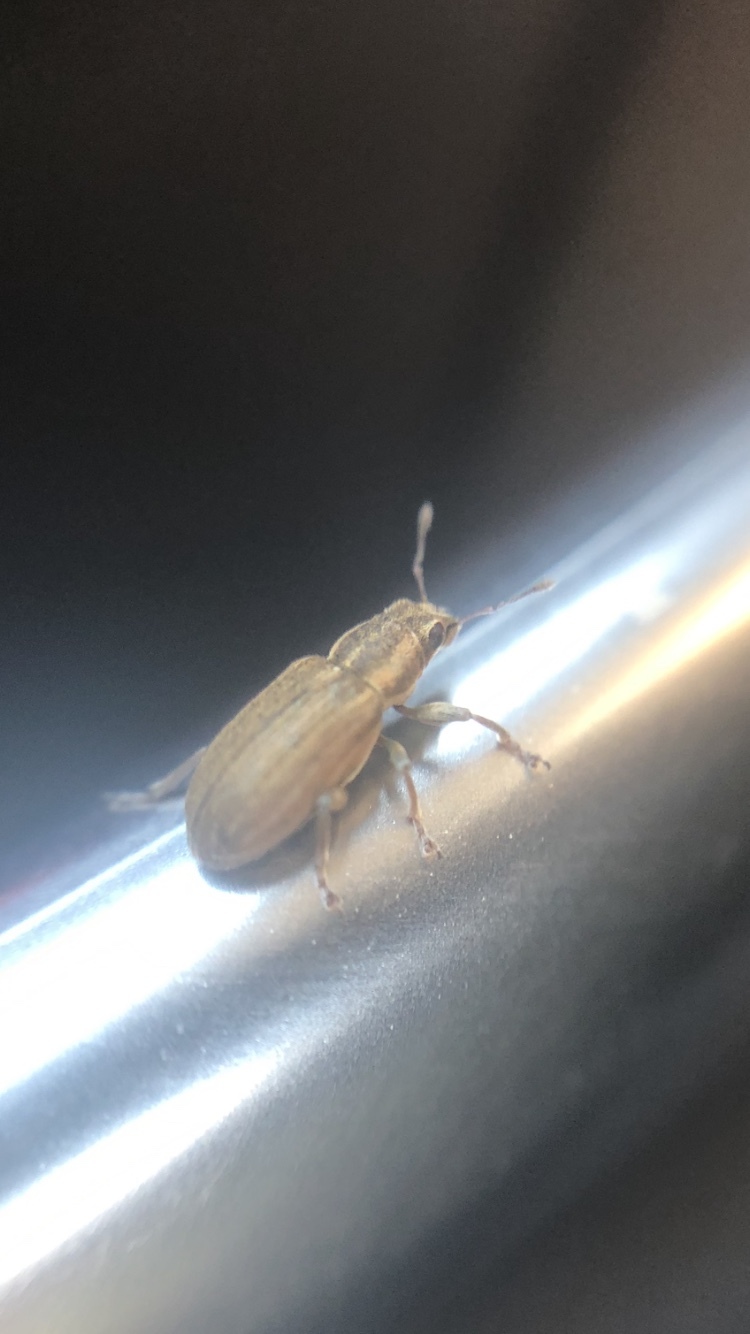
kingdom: Animalia
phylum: Arthropoda
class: Insecta
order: Coleoptera
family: Curculionidae
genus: Sitona
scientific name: Sitona lineatus
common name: Weevil
